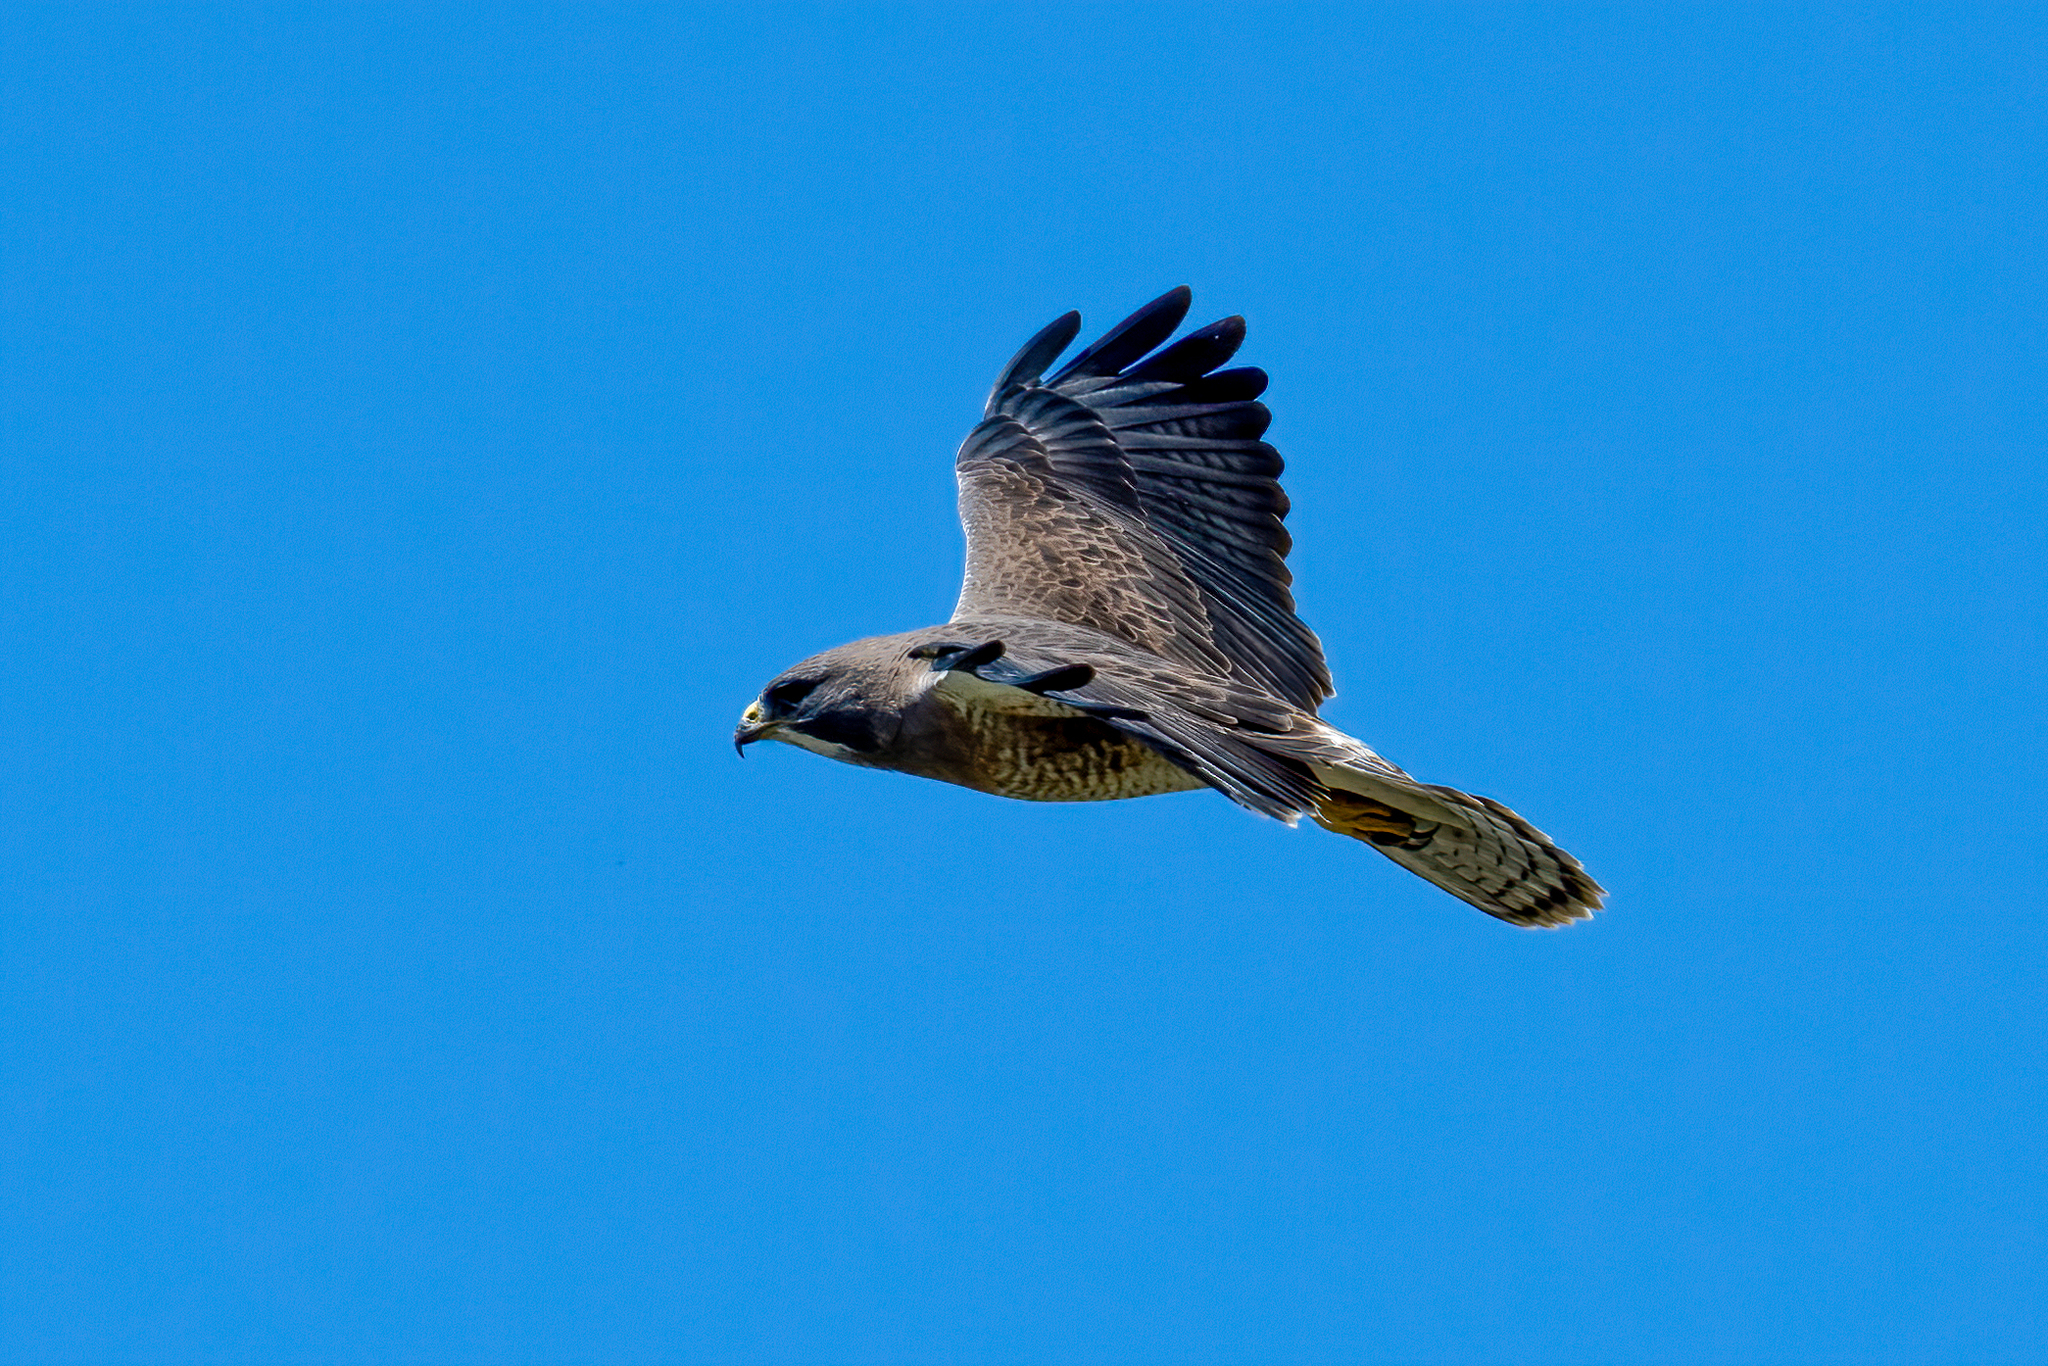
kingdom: Animalia
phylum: Chordata
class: Aves
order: Accipitriformes
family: Accipitridae
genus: Buteo
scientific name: Buteo swainsoni
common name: Swainson's hawk
